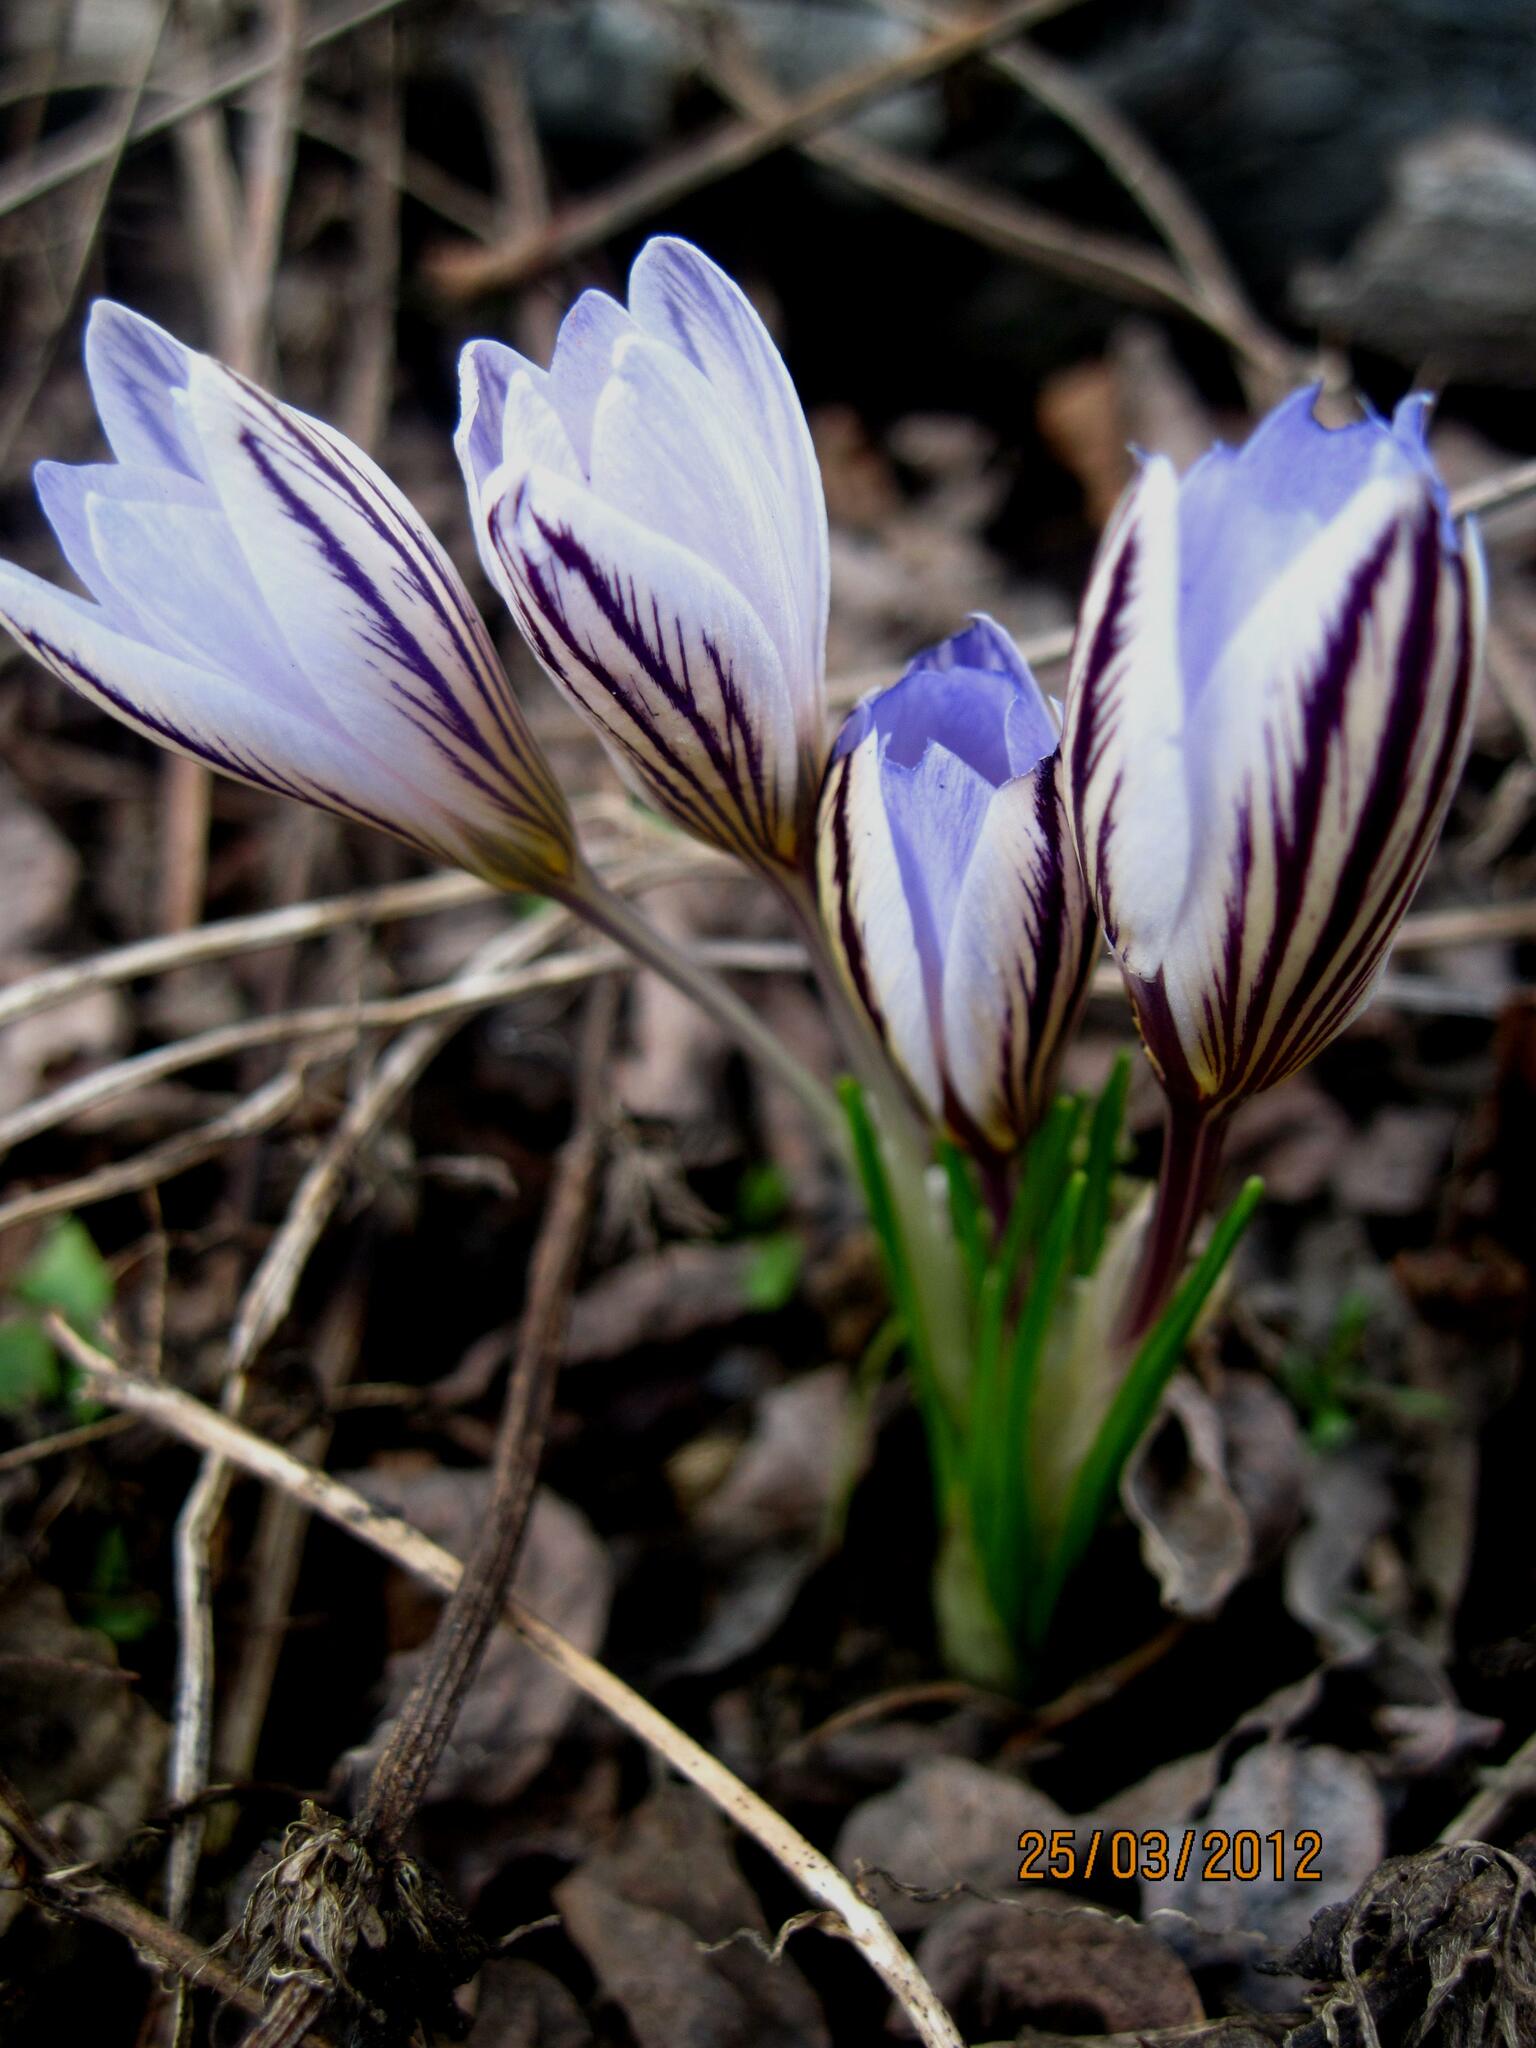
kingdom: Plantae
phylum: Tracheophyta
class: Liliopsida
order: Asparagales
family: Iridaceae
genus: Crocus
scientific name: Crocus reticulatus
